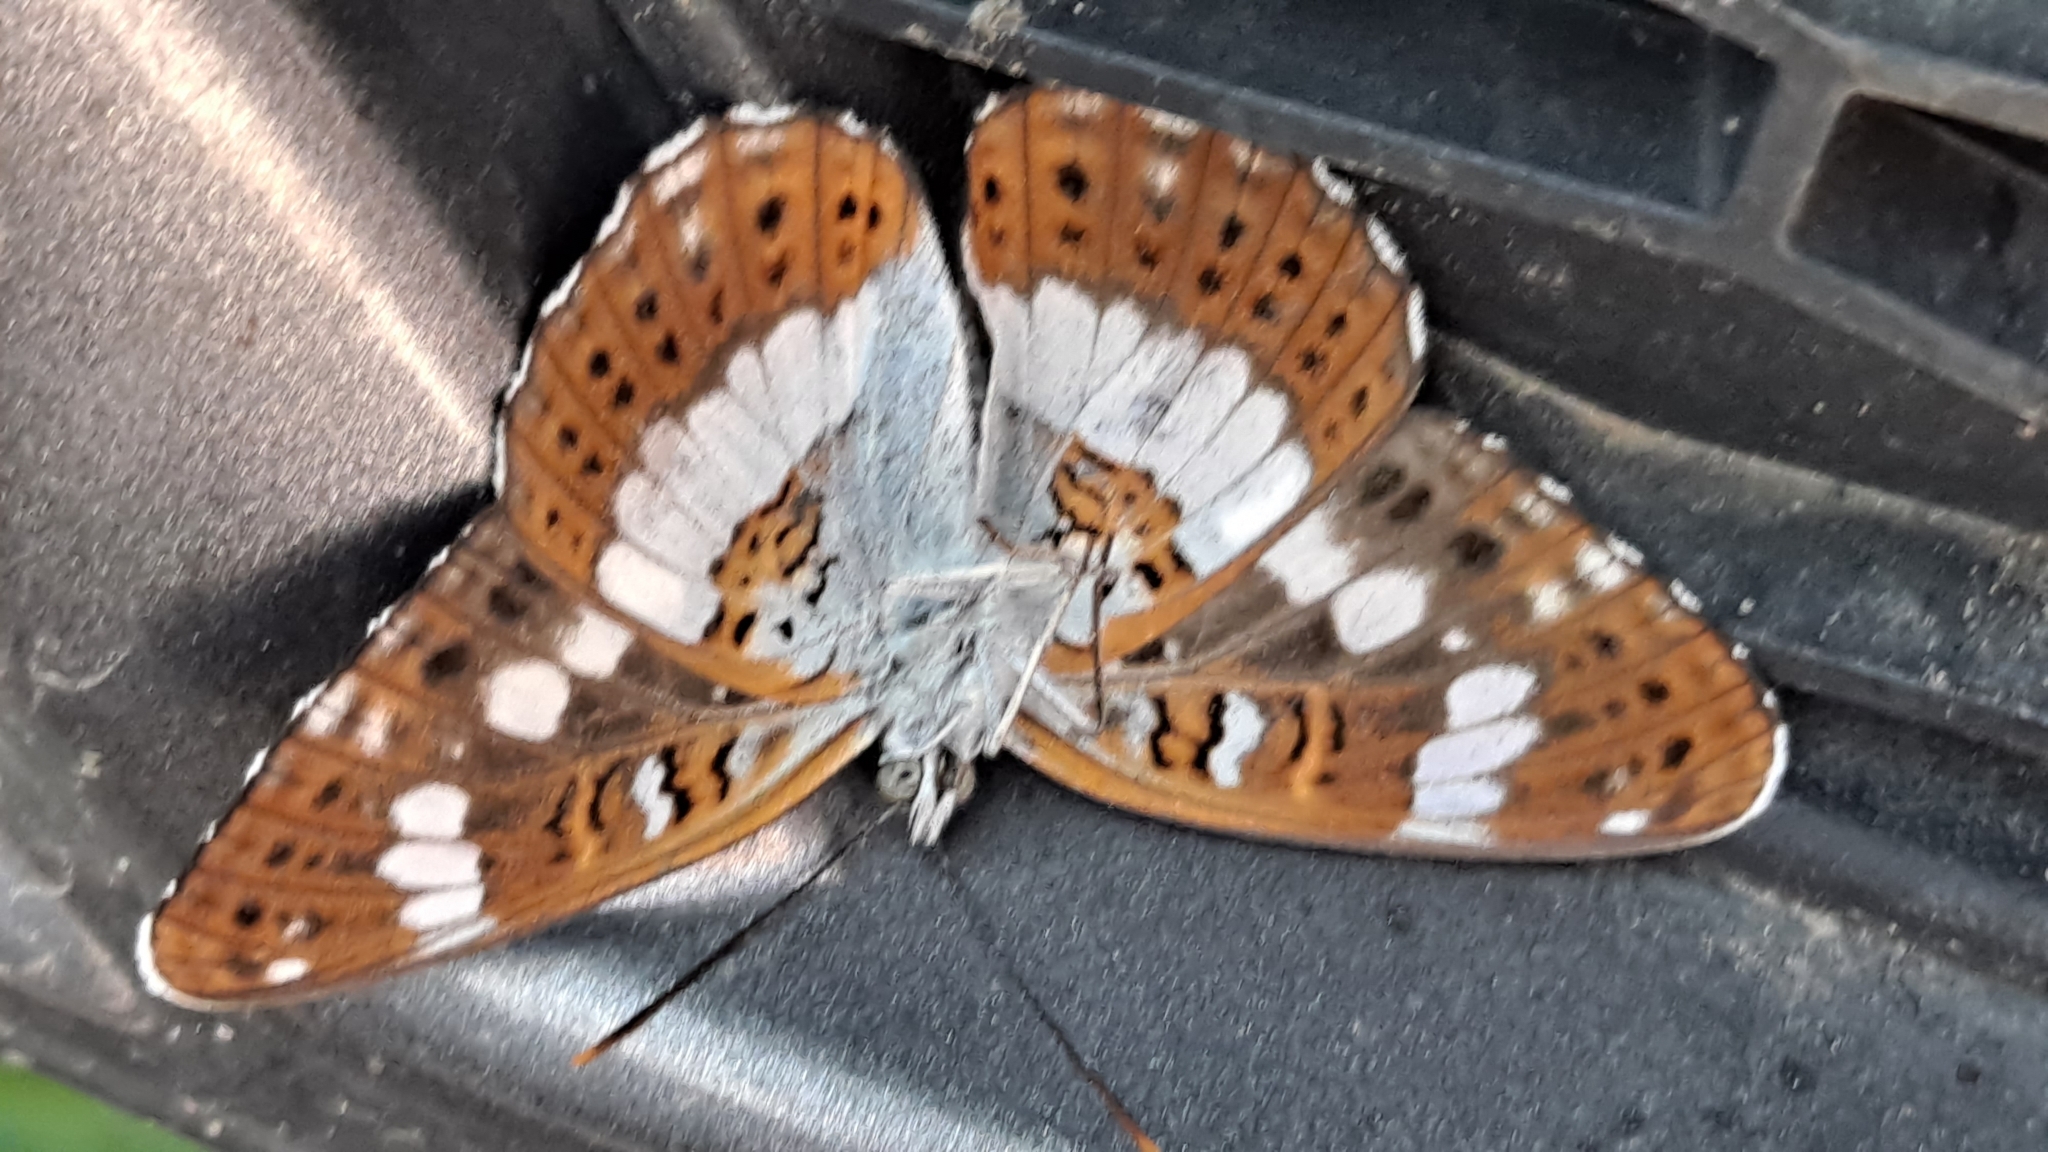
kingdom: Animalia
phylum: Arthropoda
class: Insecta
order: Lepidoptera
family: Nymphalidae
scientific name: Nymphalidae
